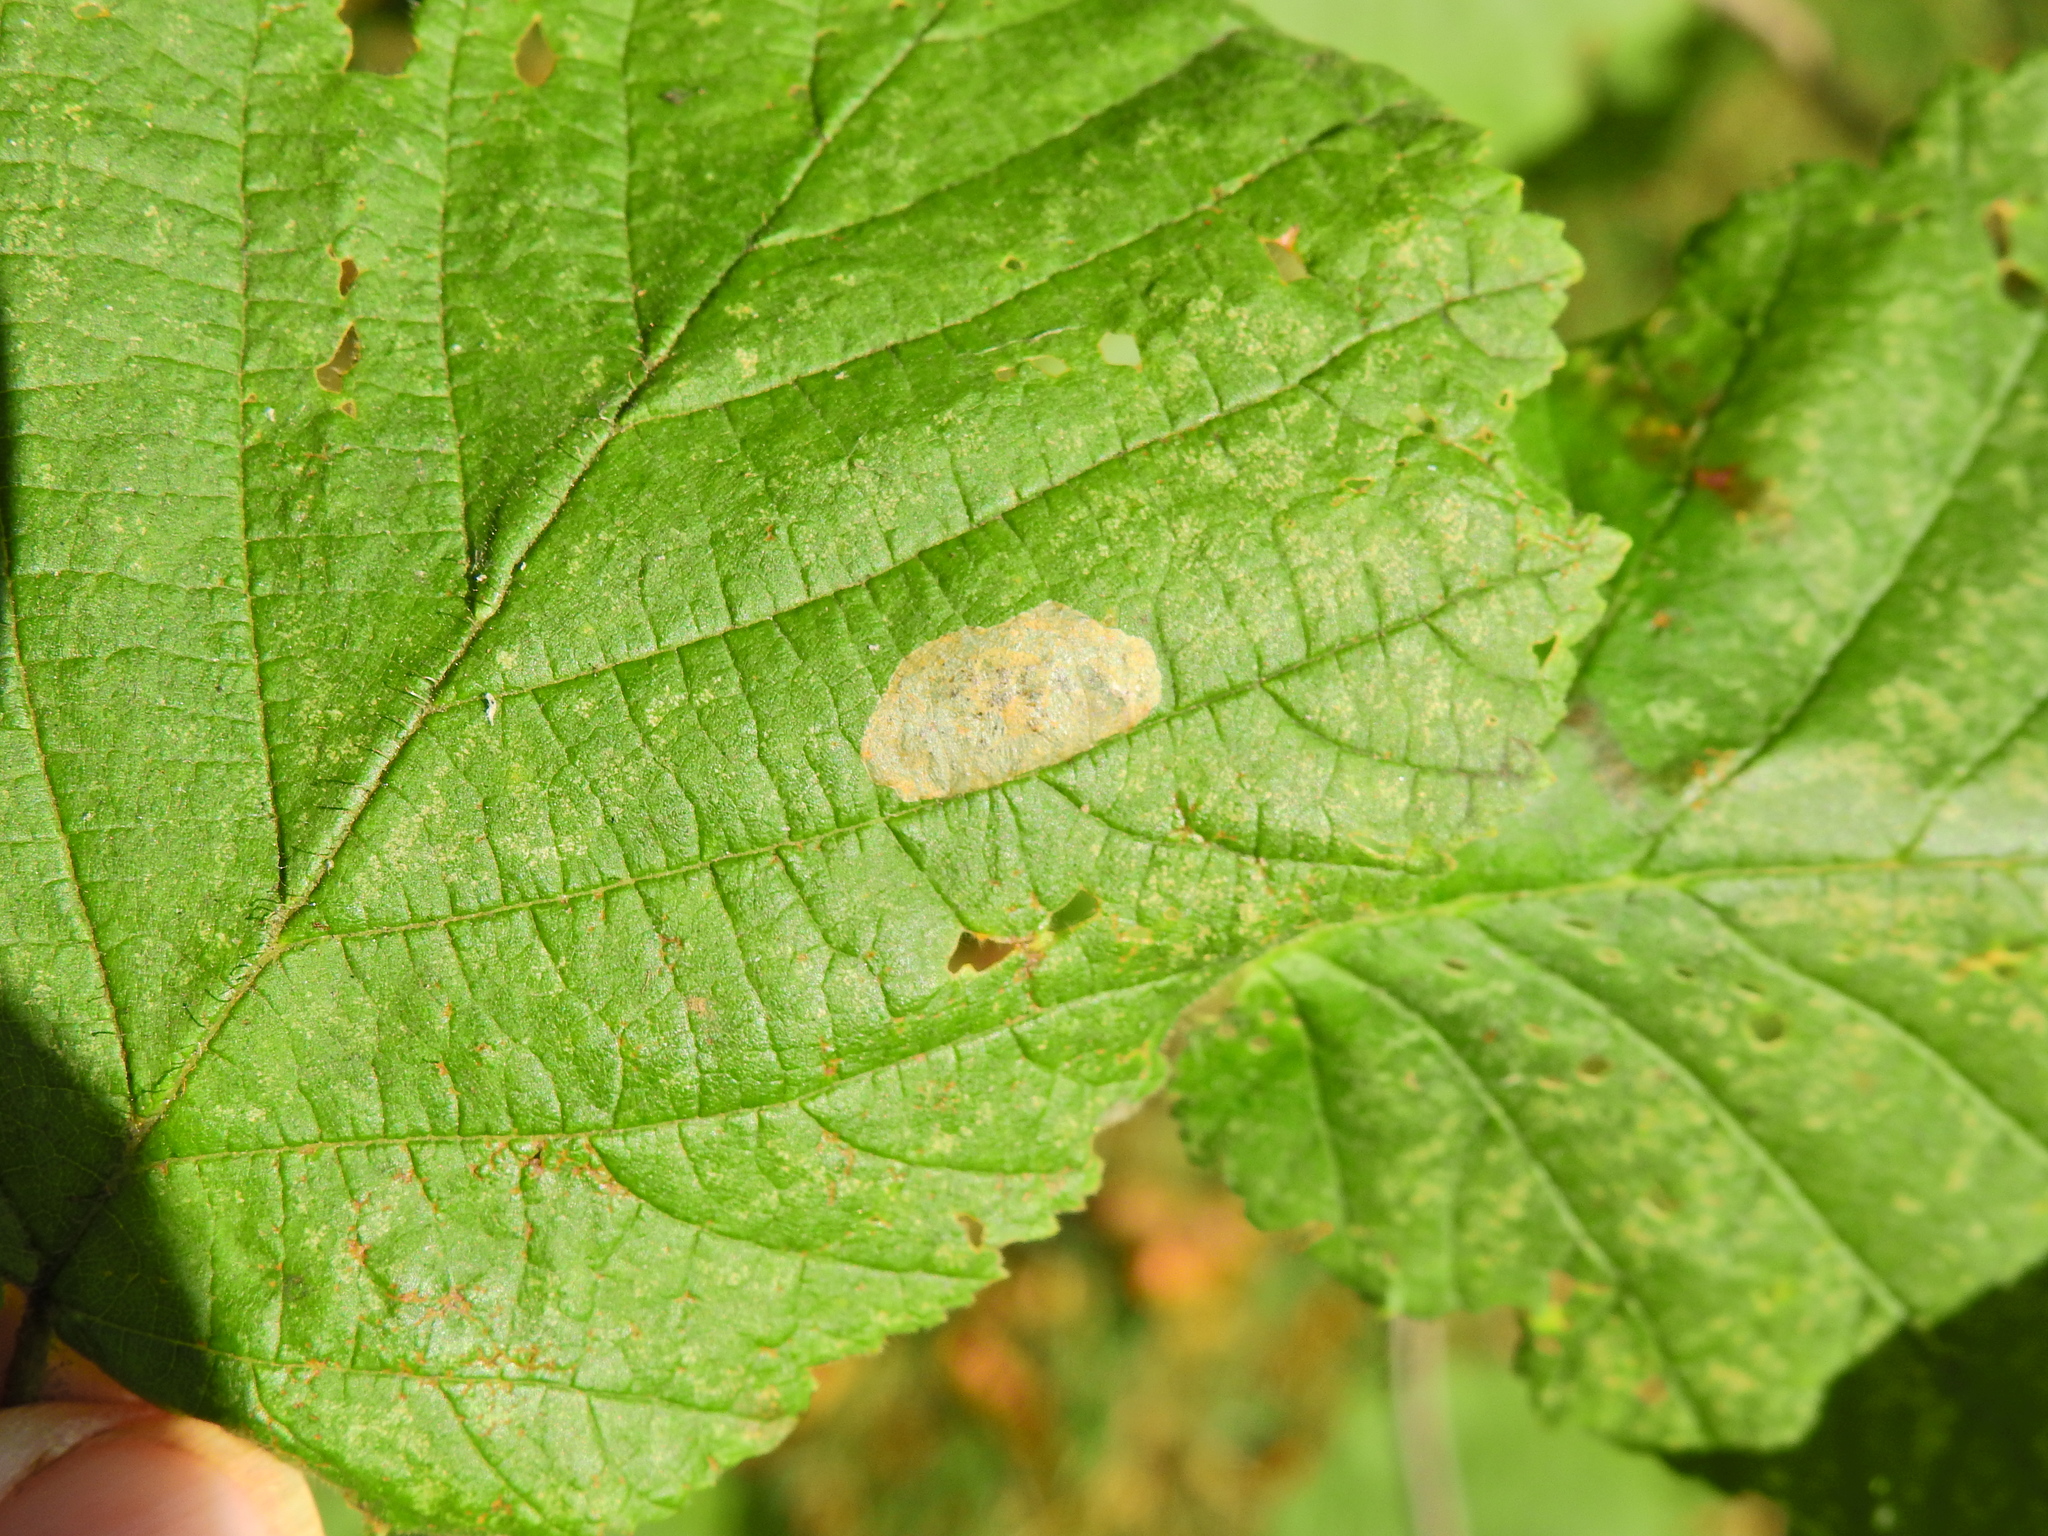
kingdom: Animalia
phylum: Arthropoda
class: Insecta
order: Lepidoptera
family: Gracillariidae
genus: Phyllonorycter
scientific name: Phyllonorycter coryli
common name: Nut-leaf blister moth
